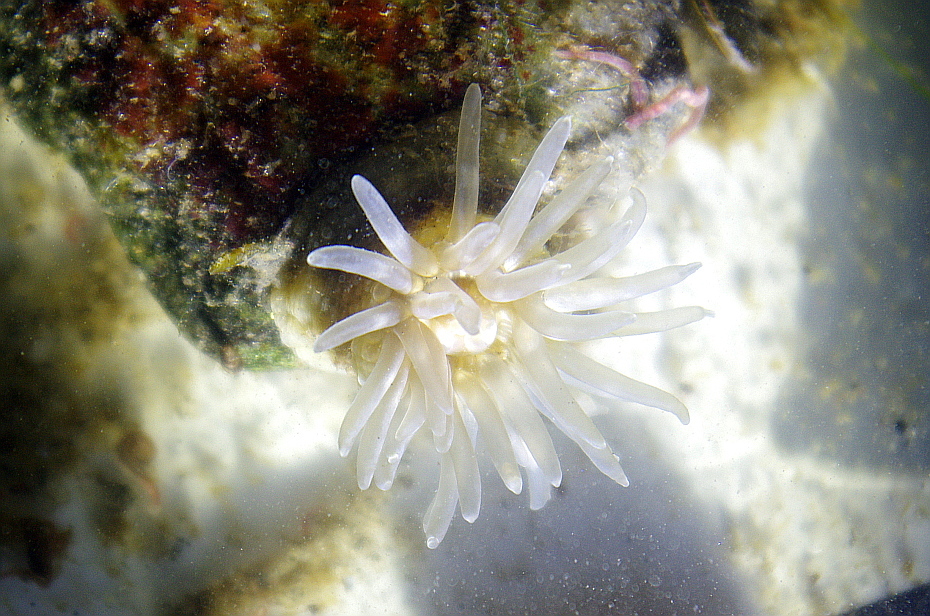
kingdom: Animalia
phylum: Cnidaria
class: Anthozoa
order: Actiniaria
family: Actiniidae
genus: Aulactinia
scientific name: Aulactinia stella
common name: Silver-spotted sea anemone
